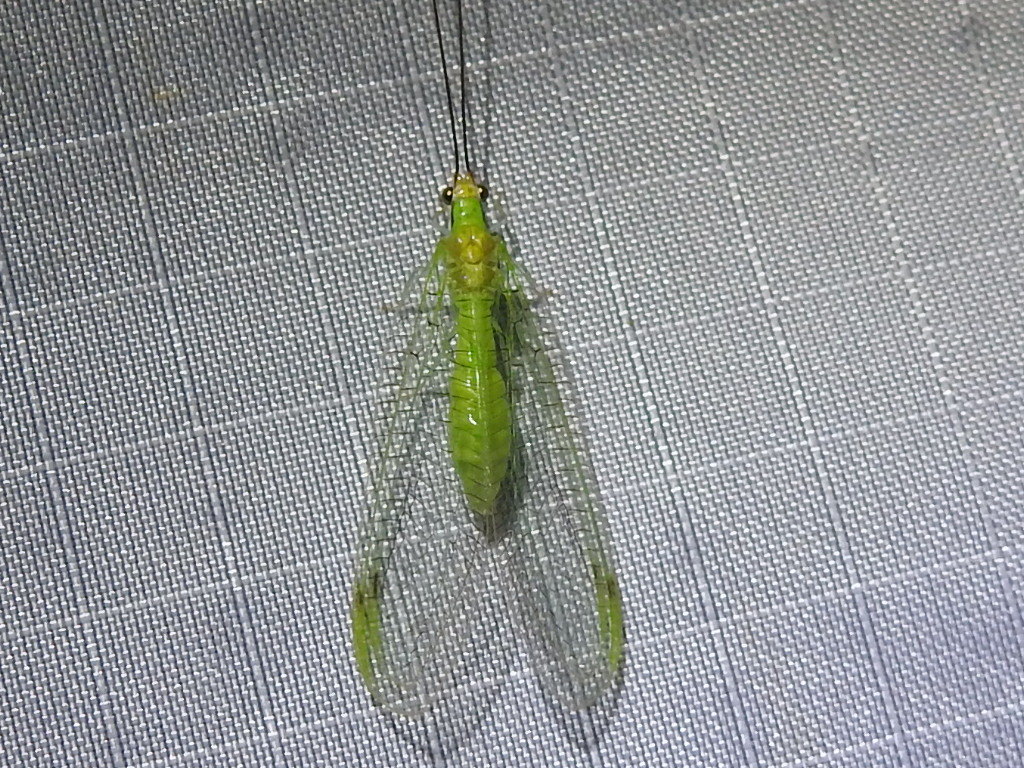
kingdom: Animalia
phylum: Arthropoda
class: Insecta
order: Neuroptera
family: Chrysopidae
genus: Leucochrysa
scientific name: Leucochrysa pavida
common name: Lichen-carrying green lacewing
